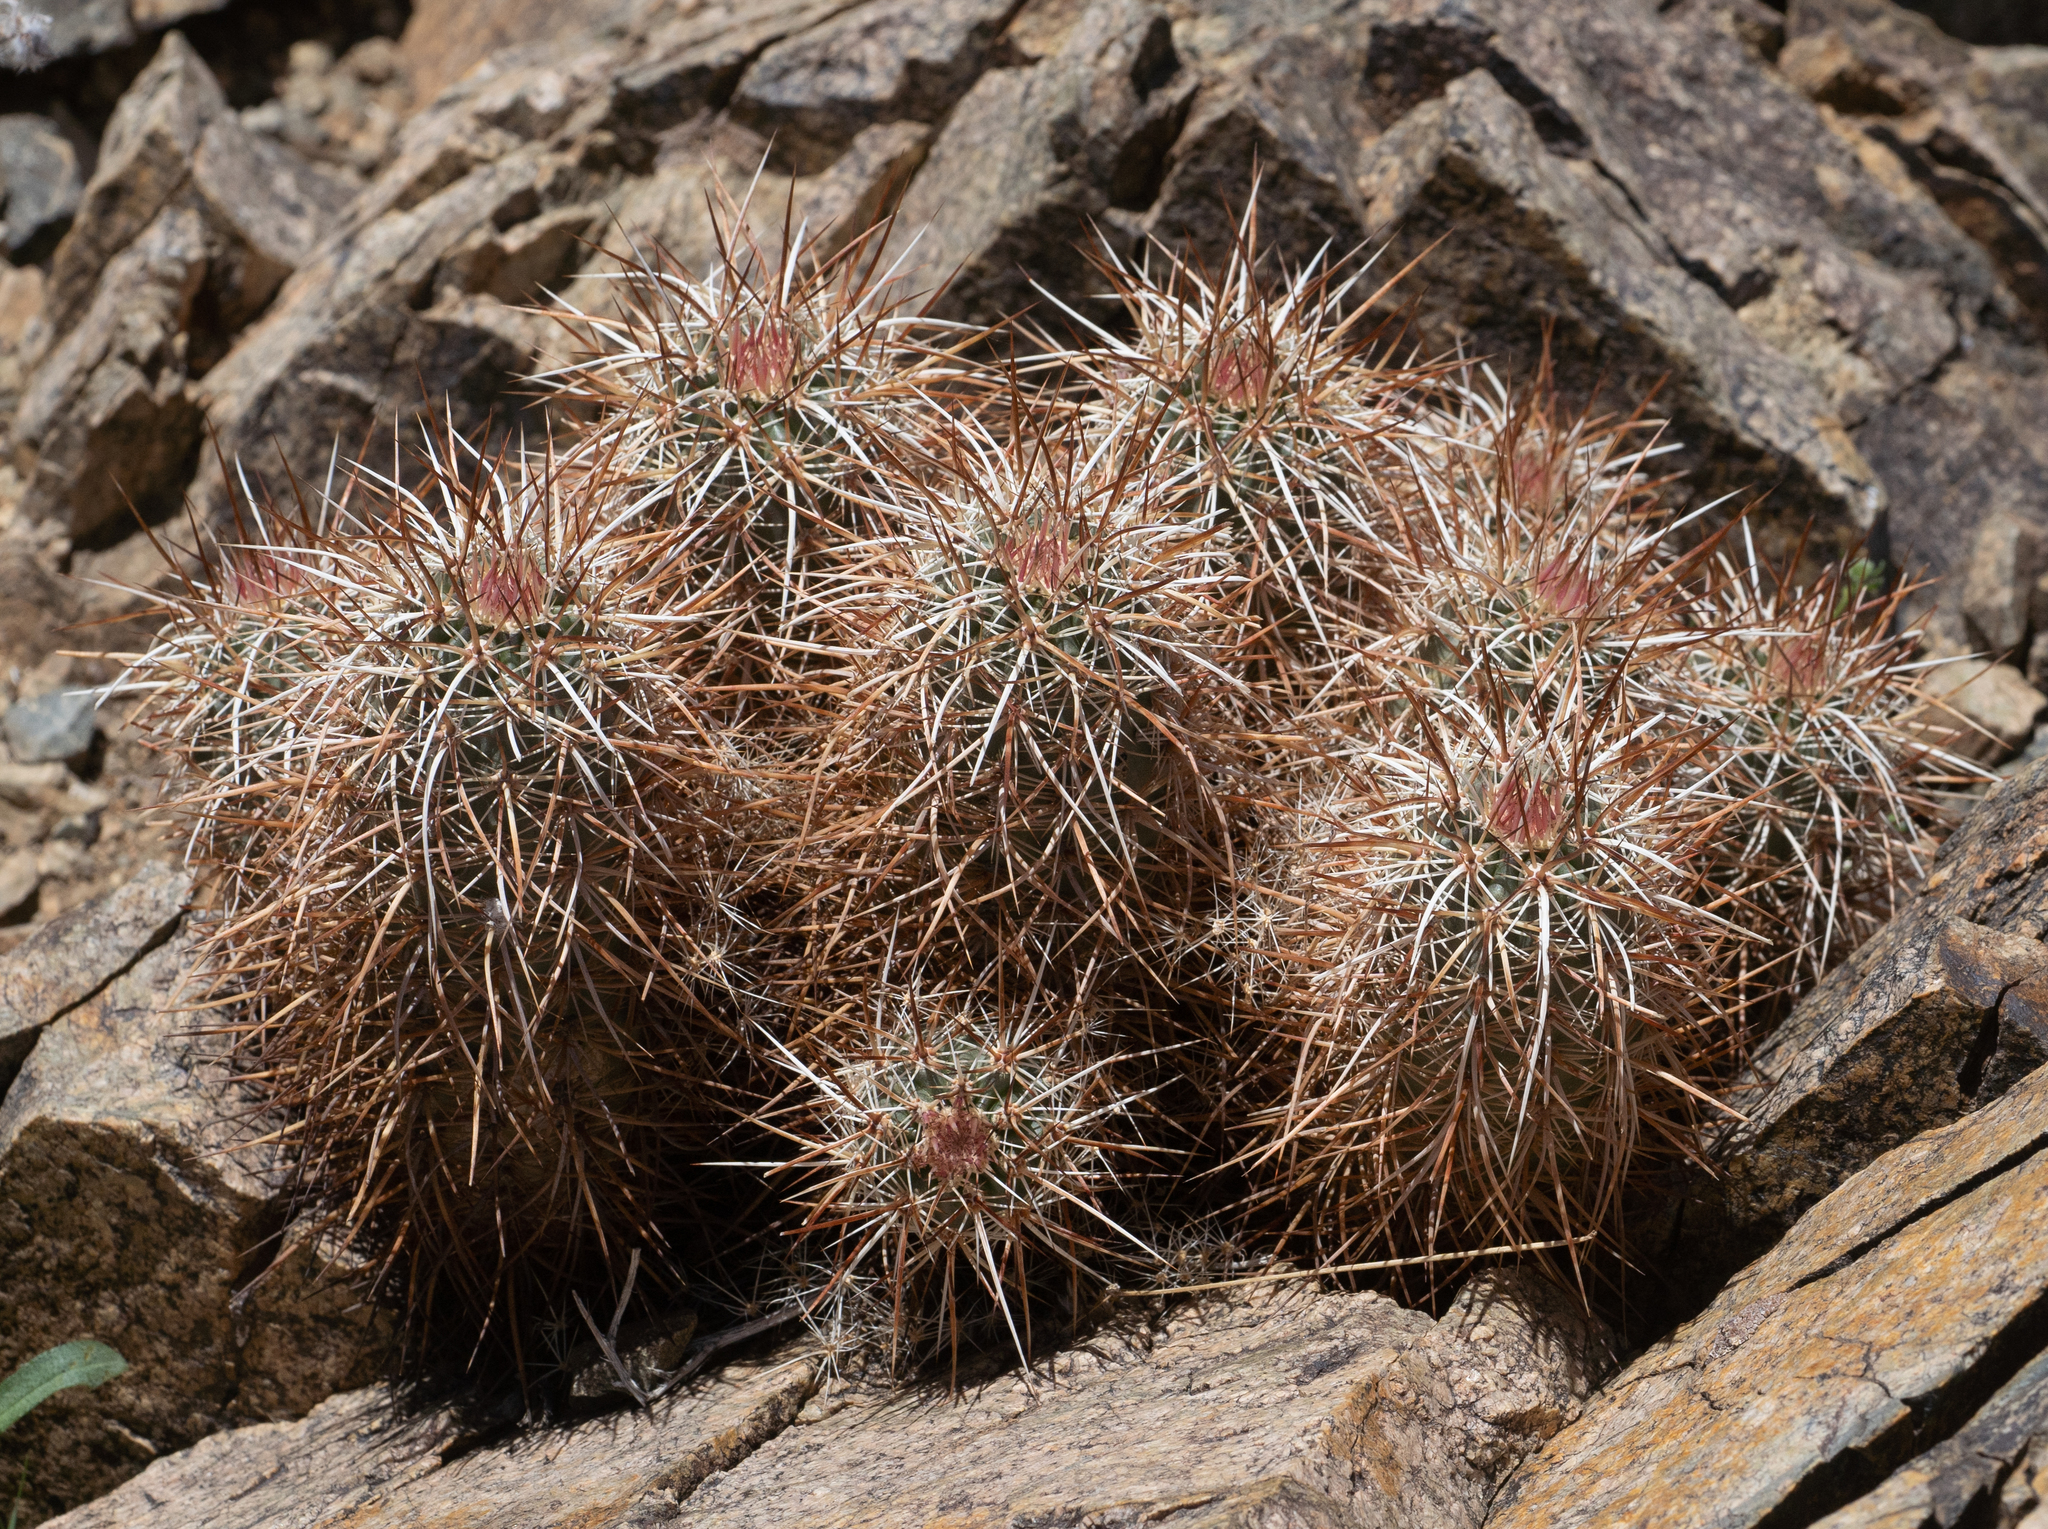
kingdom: Plantae
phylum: Tracheophyta
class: Magnoliopsida
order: Caryophyllales
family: Cactaceae
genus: Echinocereus
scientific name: Echinocereus engelmannii
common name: Engelmann's hedgehog cactus
